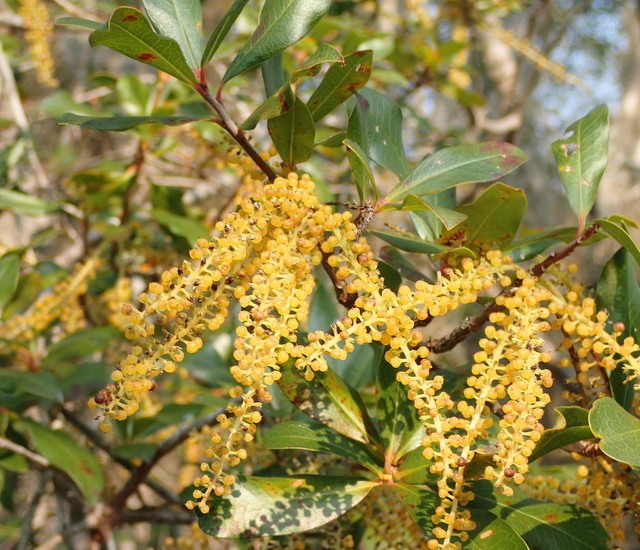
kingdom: Plantae
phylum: Tracheophyta
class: Magnoliopsida
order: Ericales
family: Cyrillaceae
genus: Cyrilla
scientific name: Cyrilla racemiflora
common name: Black titi
